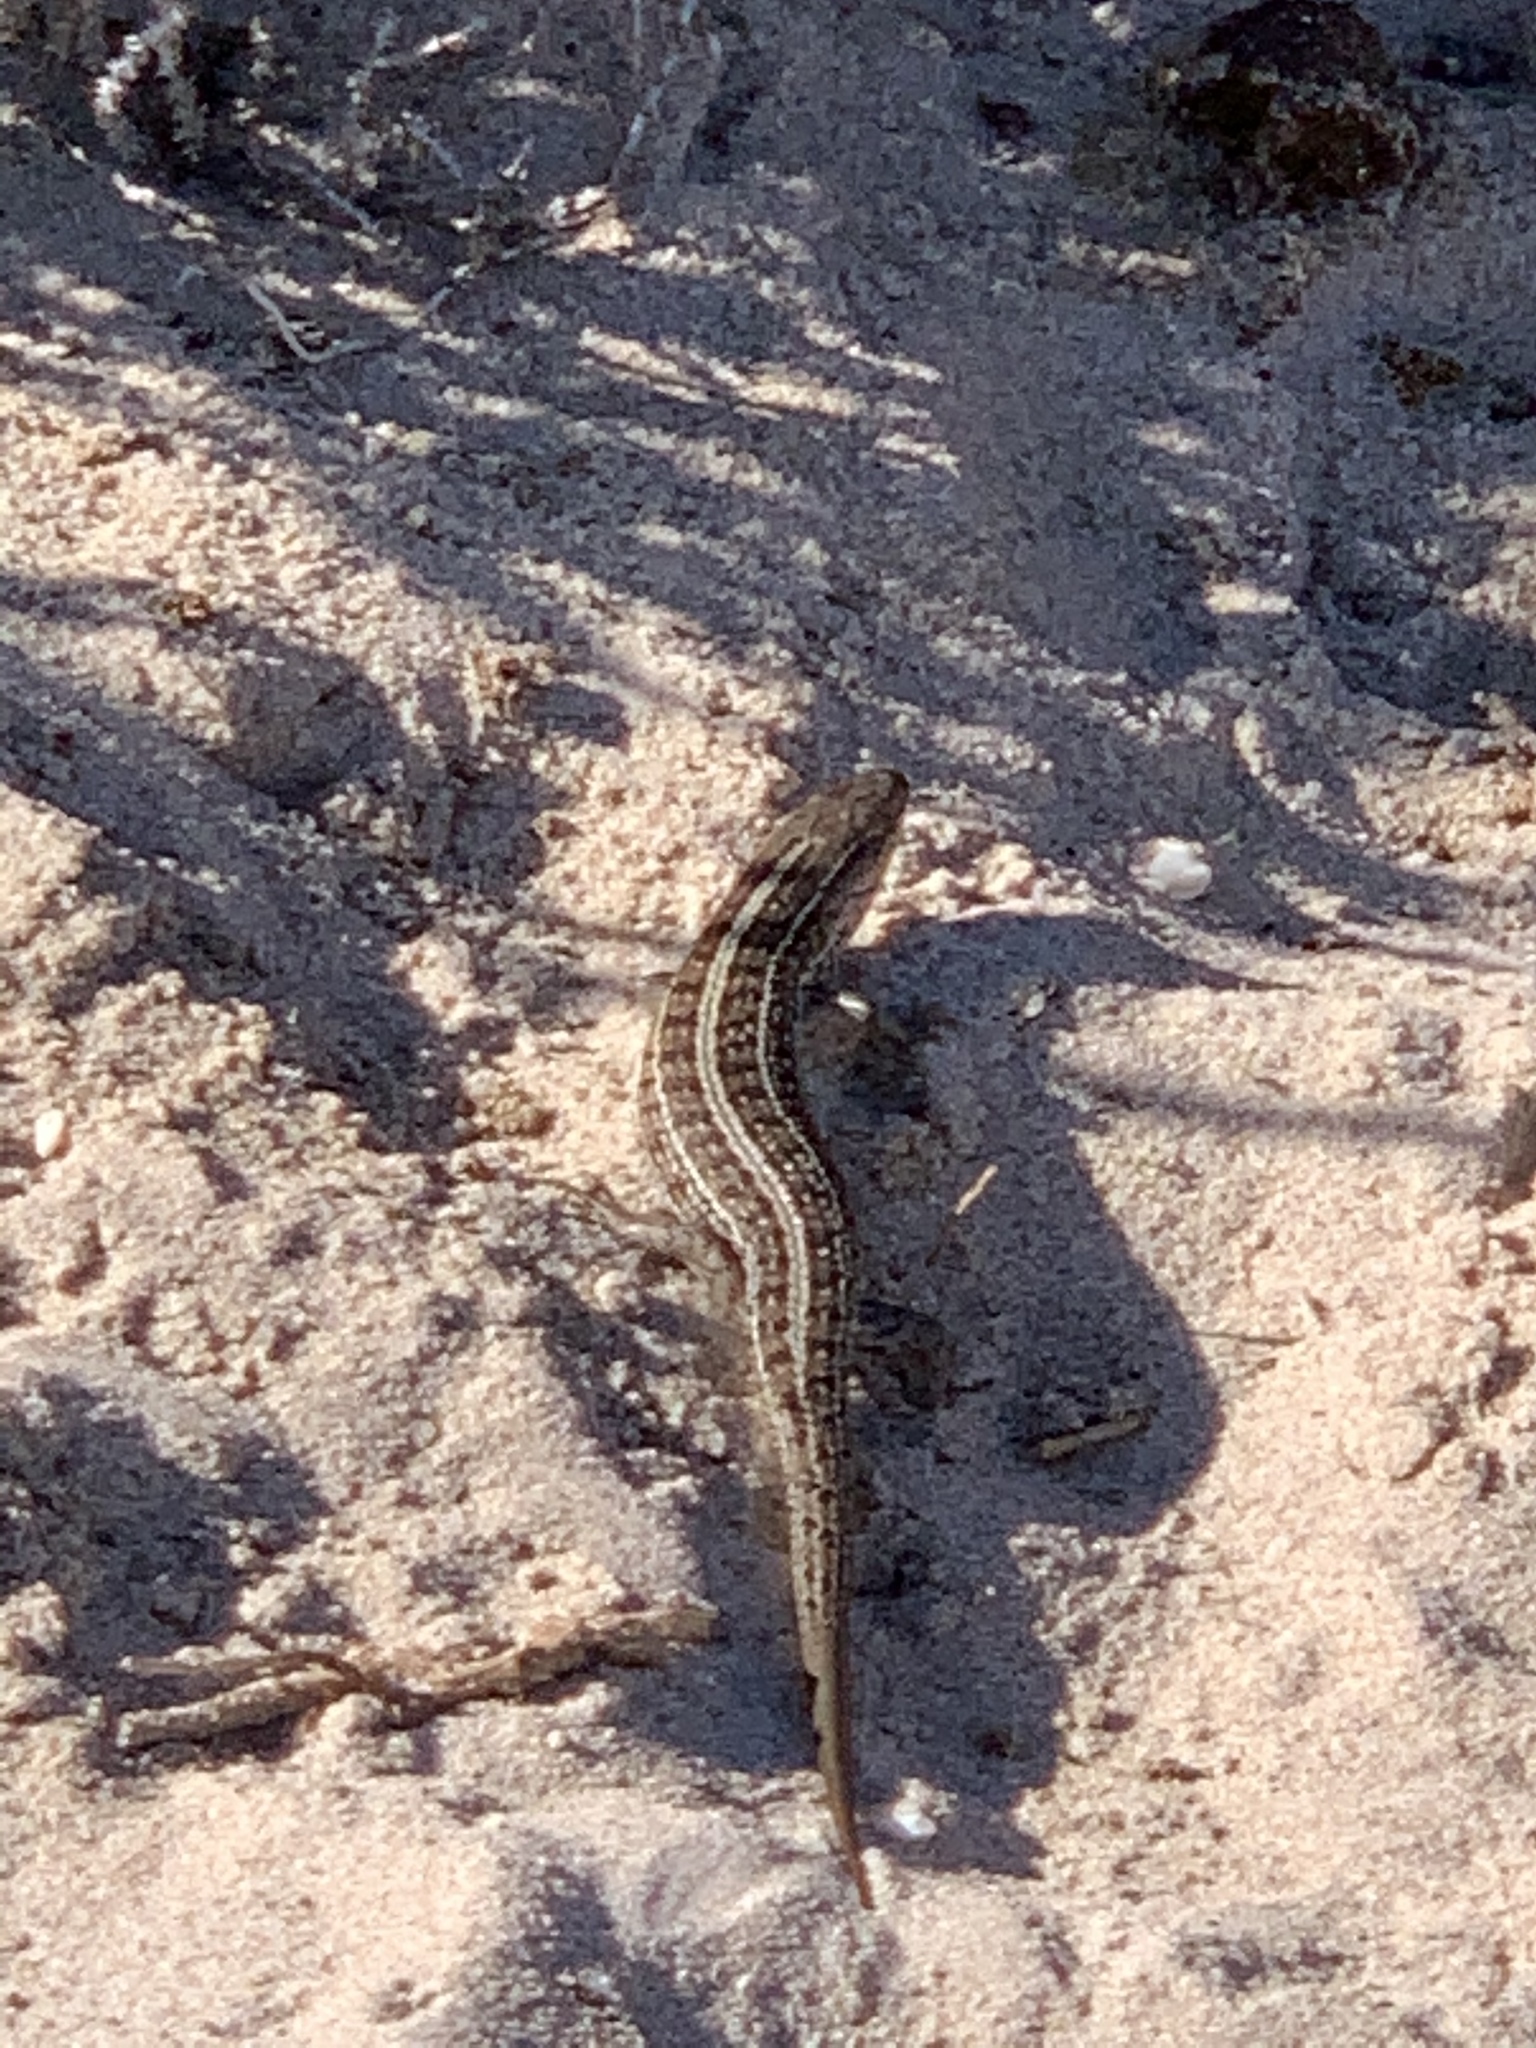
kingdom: Animalia
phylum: Chordata
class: Squamata
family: Scincidae
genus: Trachylepis
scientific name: Trachylepis capensis
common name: Cape skink
